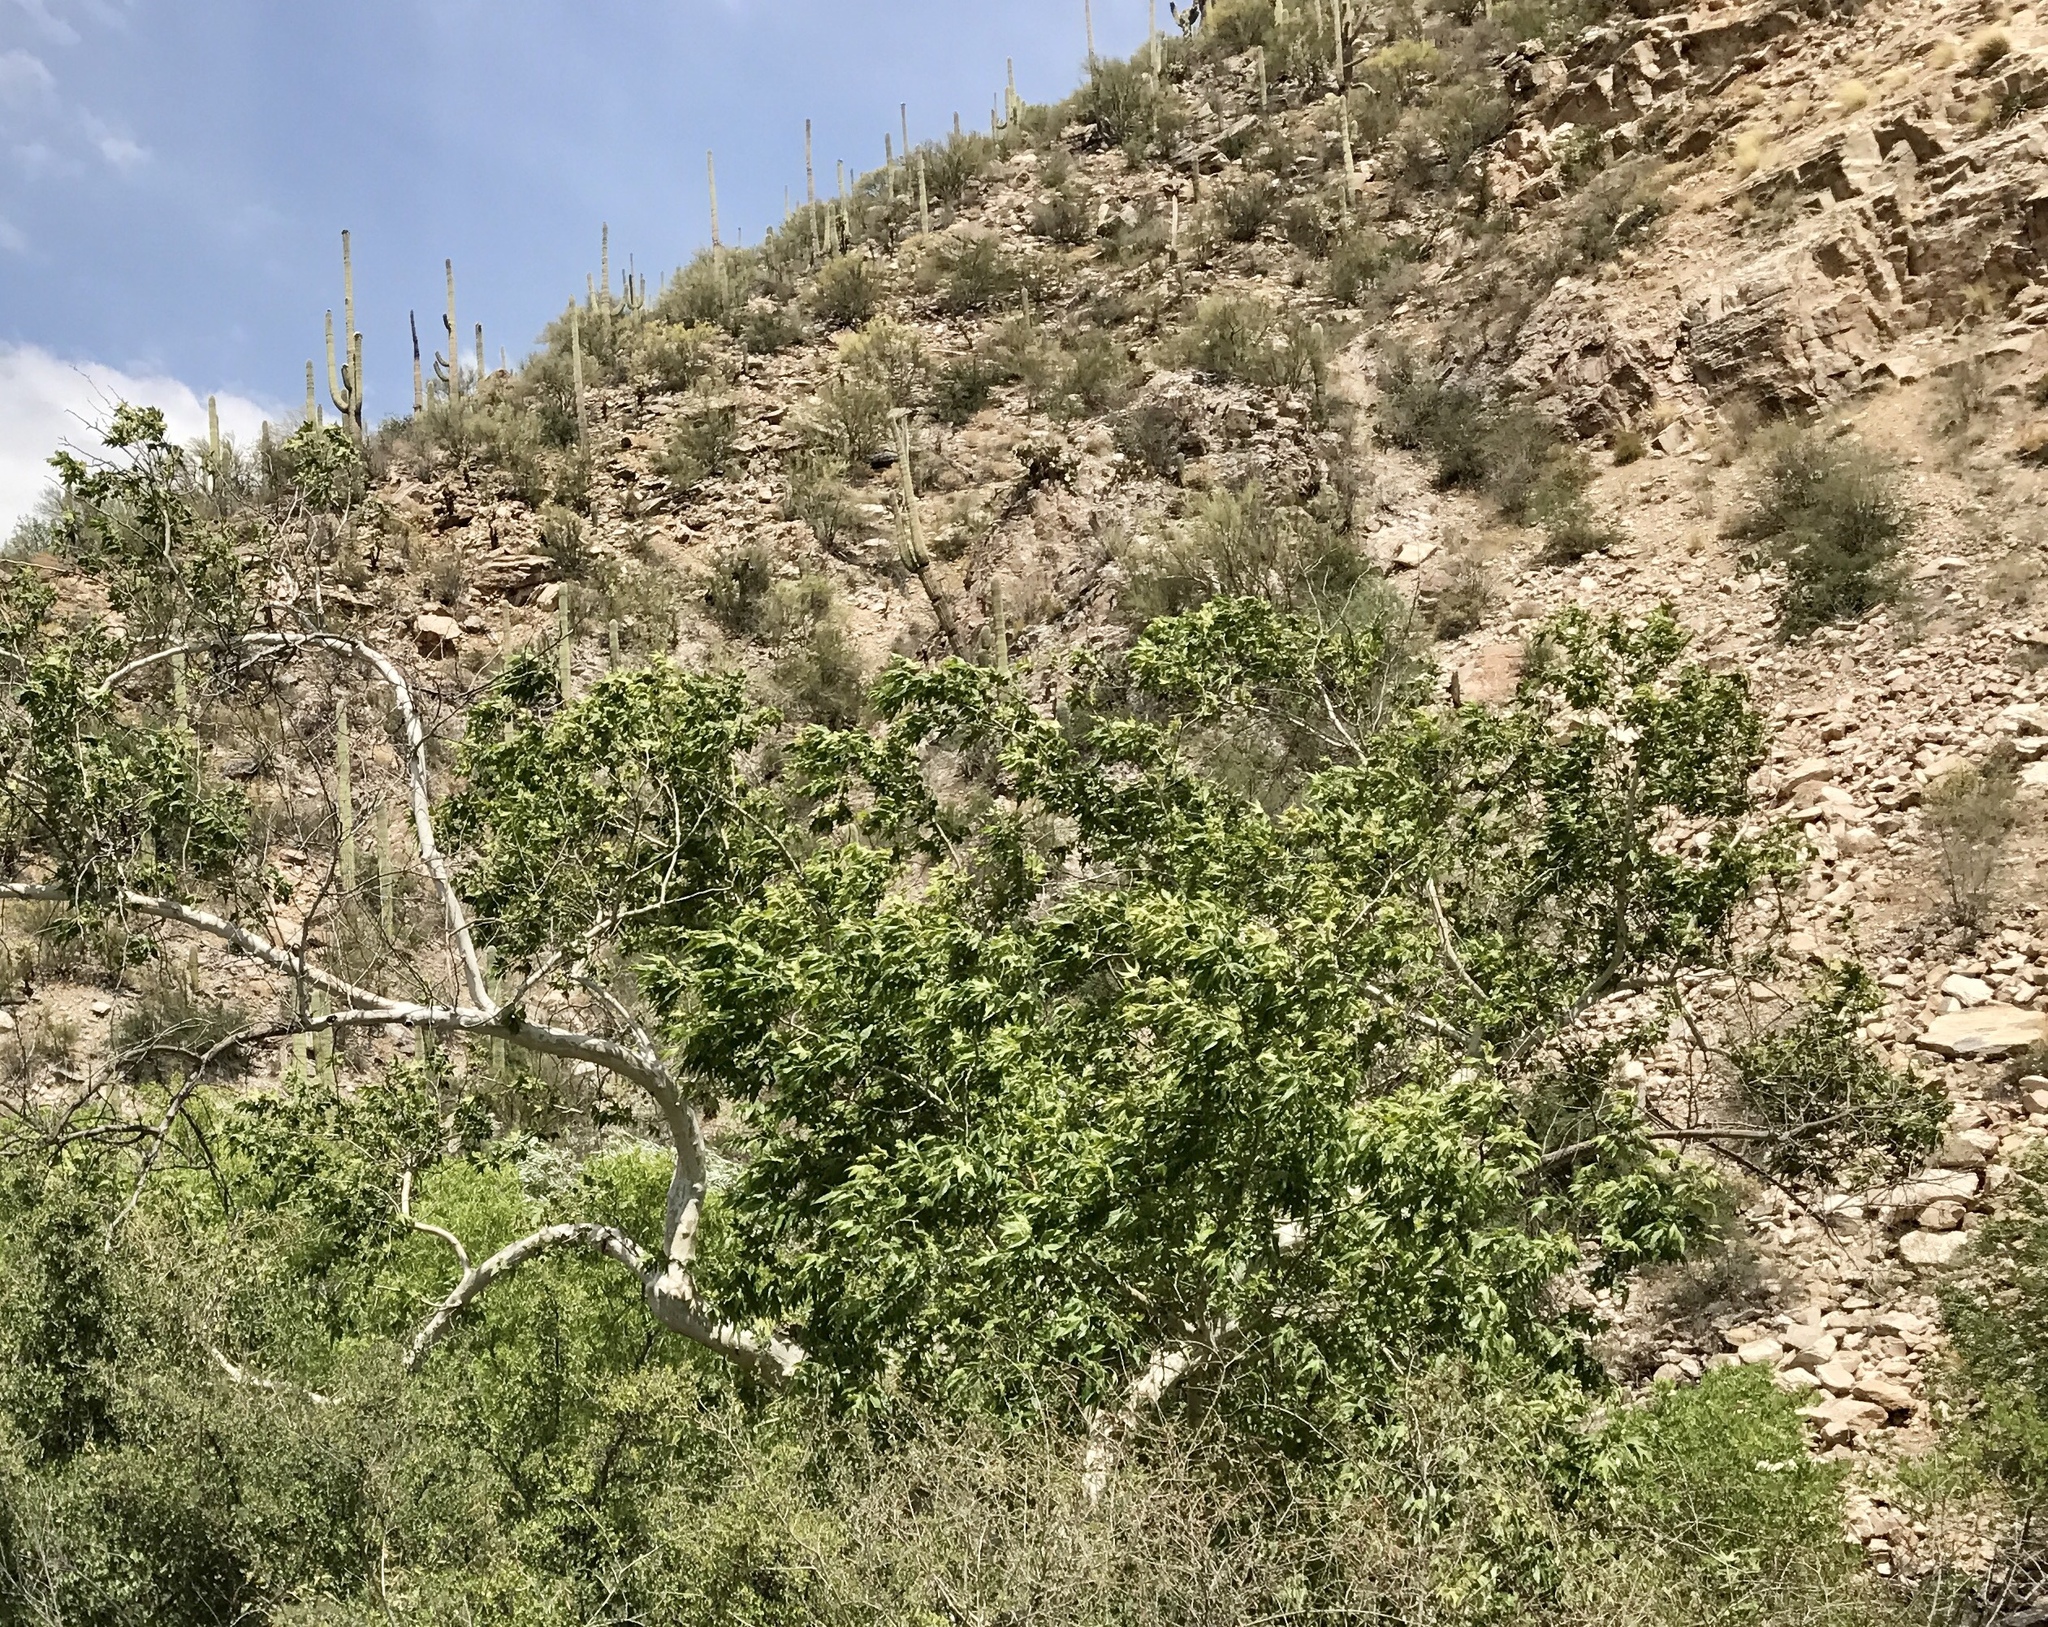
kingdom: Plantae
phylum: Tracheophyta
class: Magnoliopsida
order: Proteales
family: Platanaceae
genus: Platanus
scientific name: Platanus wrightii
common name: Arizona sycamore
